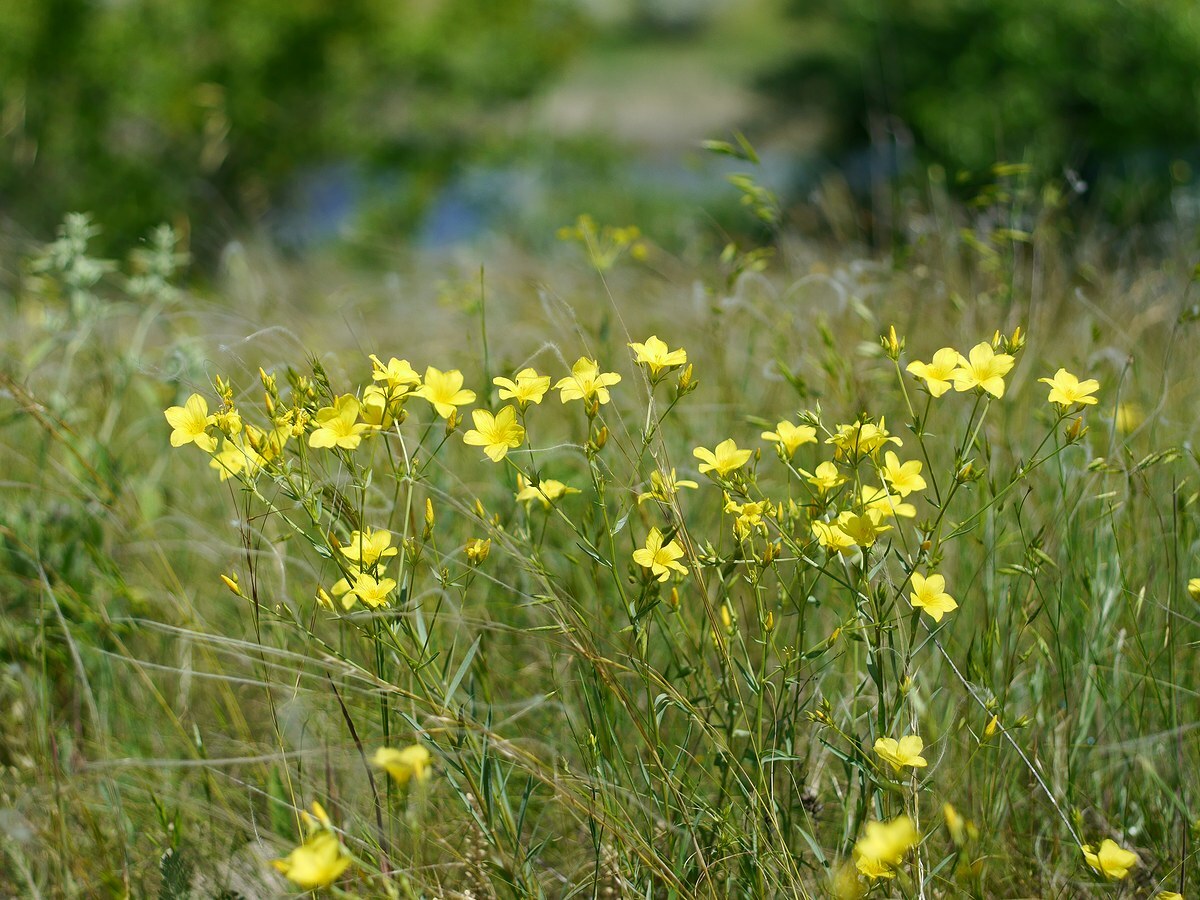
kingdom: Plantae
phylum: Tracheophyta
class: Magnoliopsida
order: Malpighiales
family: Linaceae
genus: Linum
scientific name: Linum tauricum
